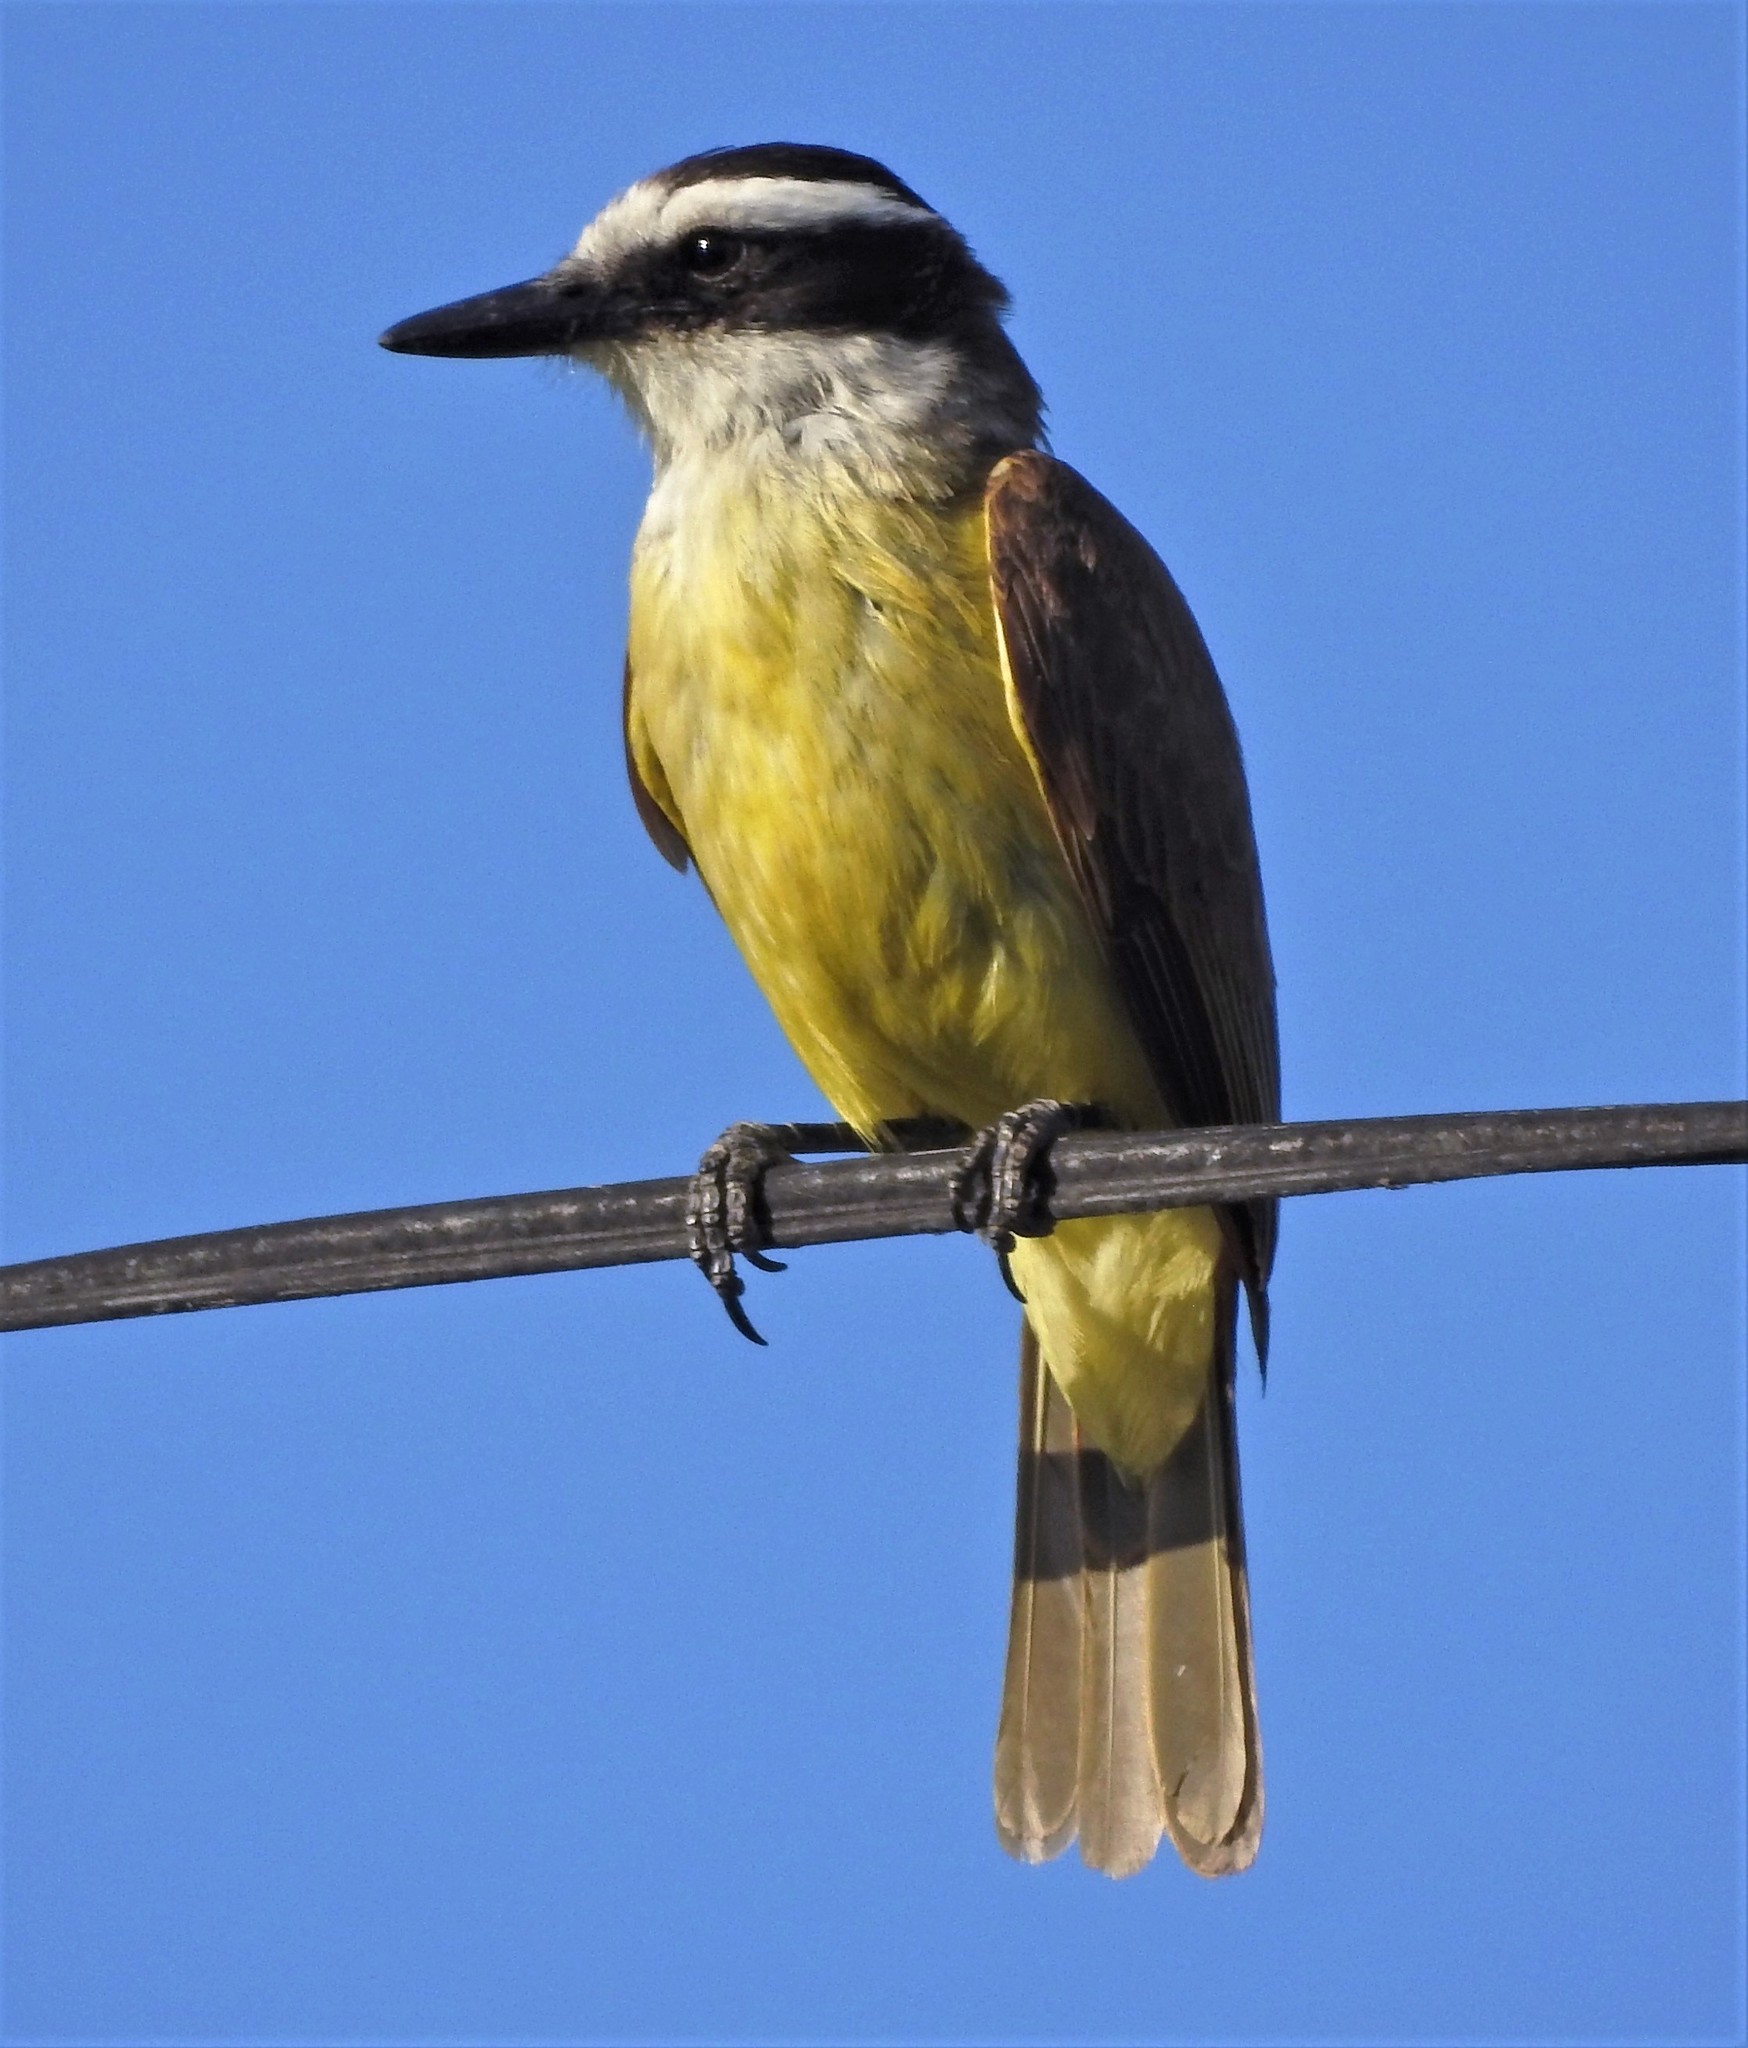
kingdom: Animalia
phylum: Chordata
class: Aves
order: Passeriformes
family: Tyrannidae
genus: Pitangus
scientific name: Pitangus sulphuratus
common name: Great kiskadee
